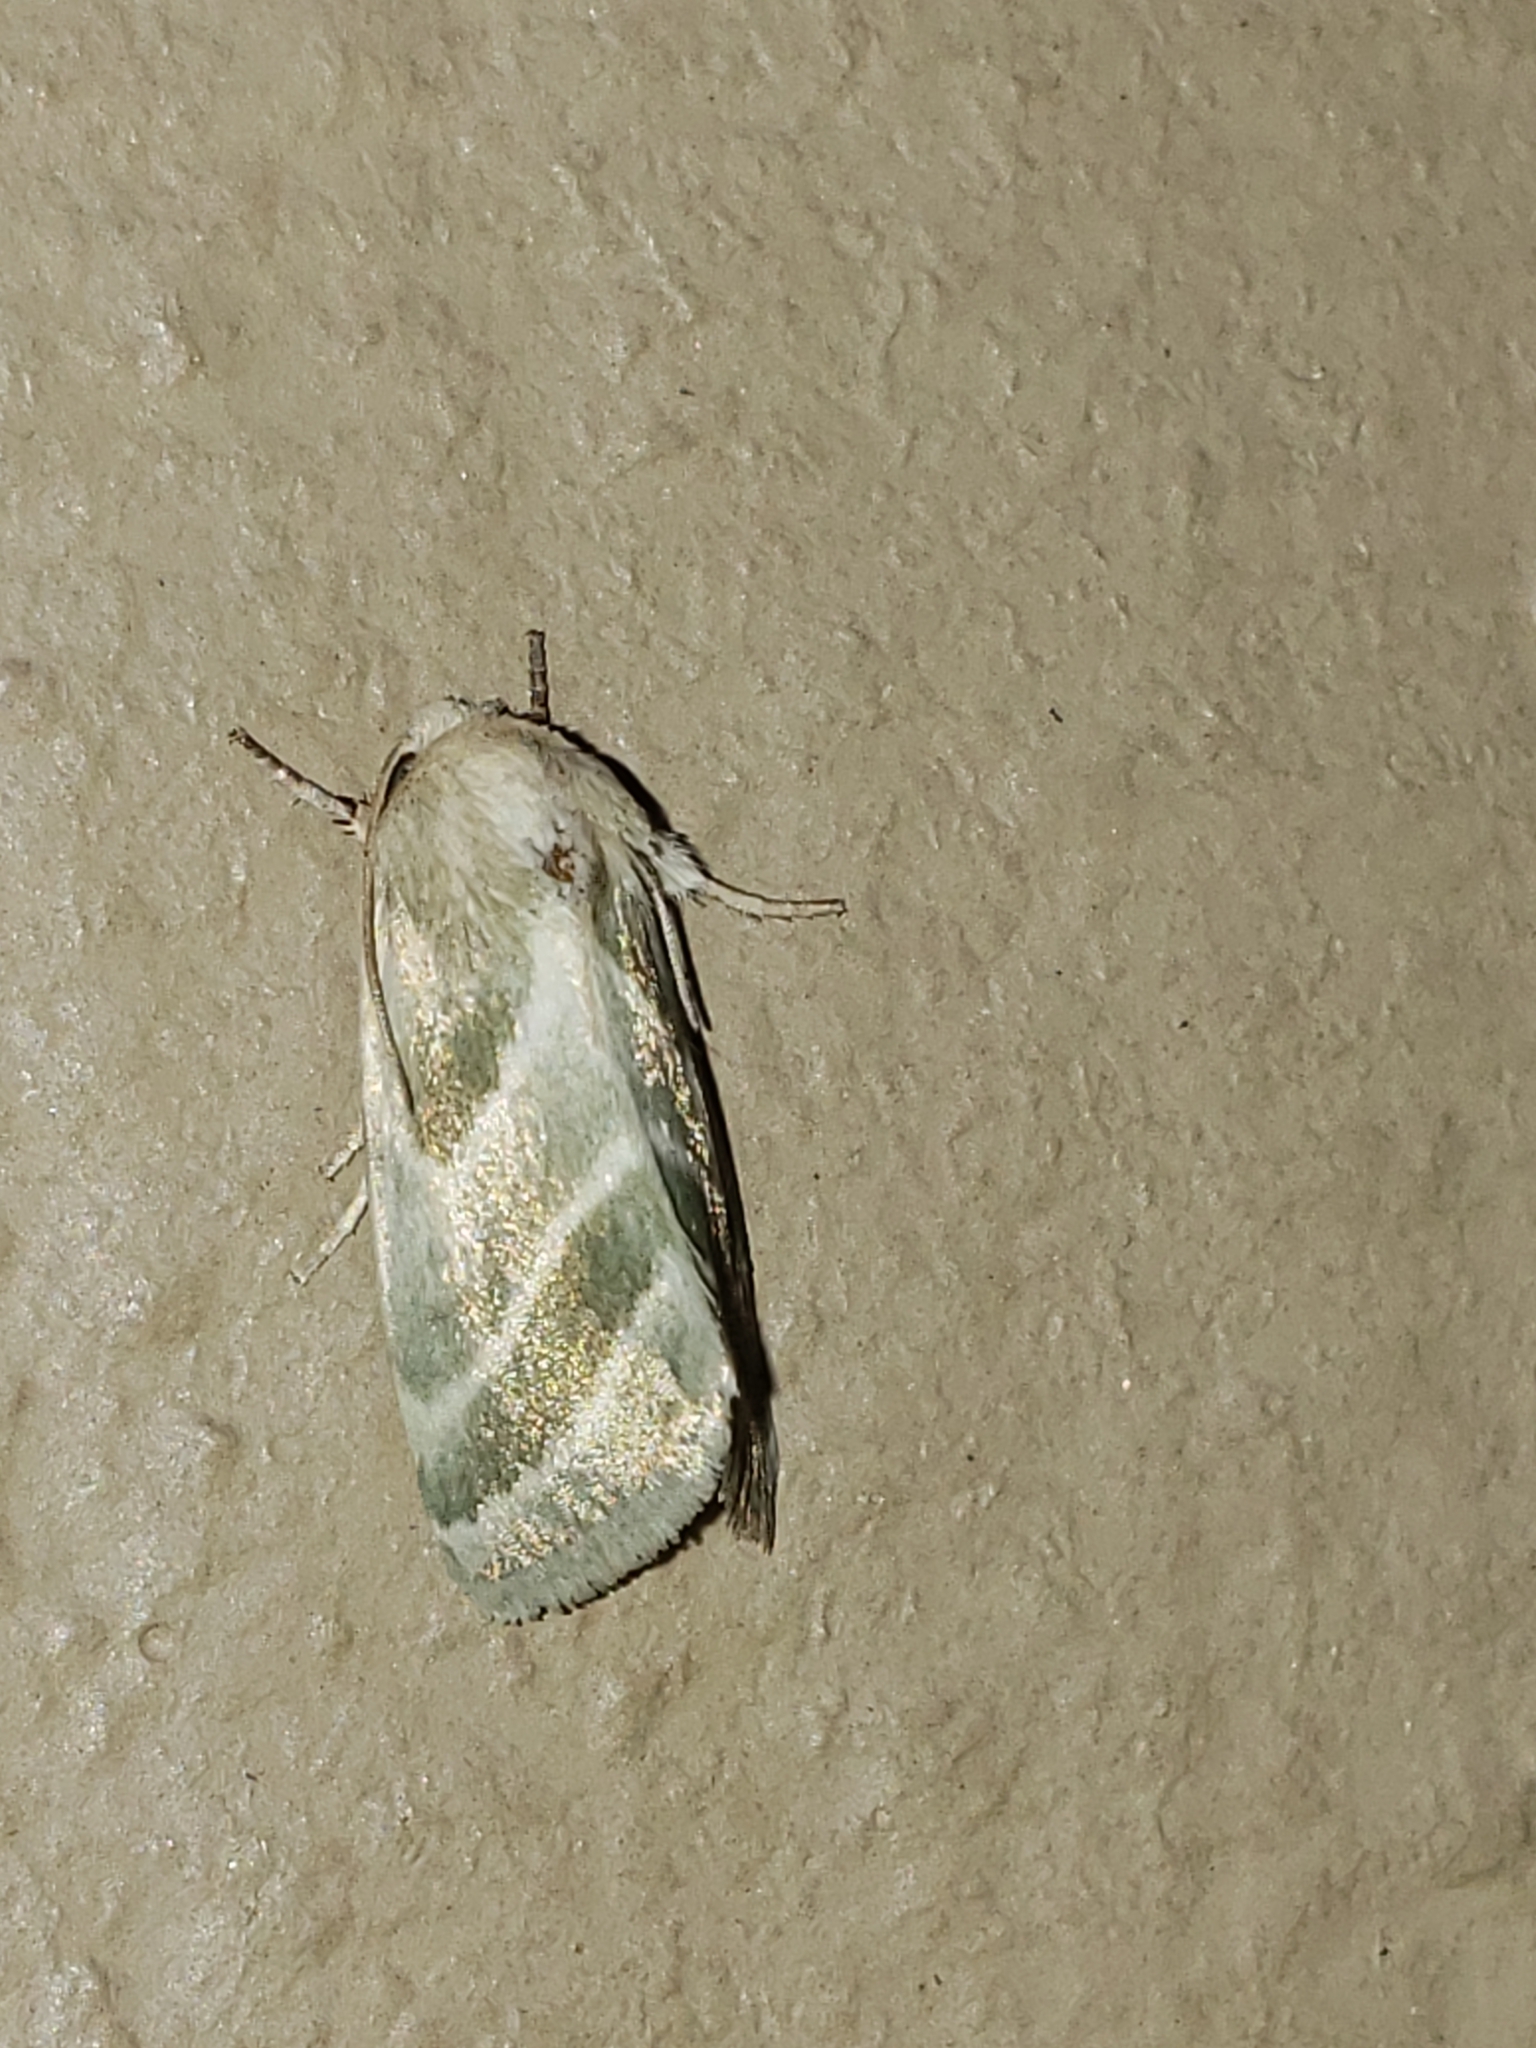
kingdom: Animalia
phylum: Arthropoda
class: Insecta
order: Lepidoptera
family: Noctuidae
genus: Schinia
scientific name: Schinia trifascia
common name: Three-lined flower moth
